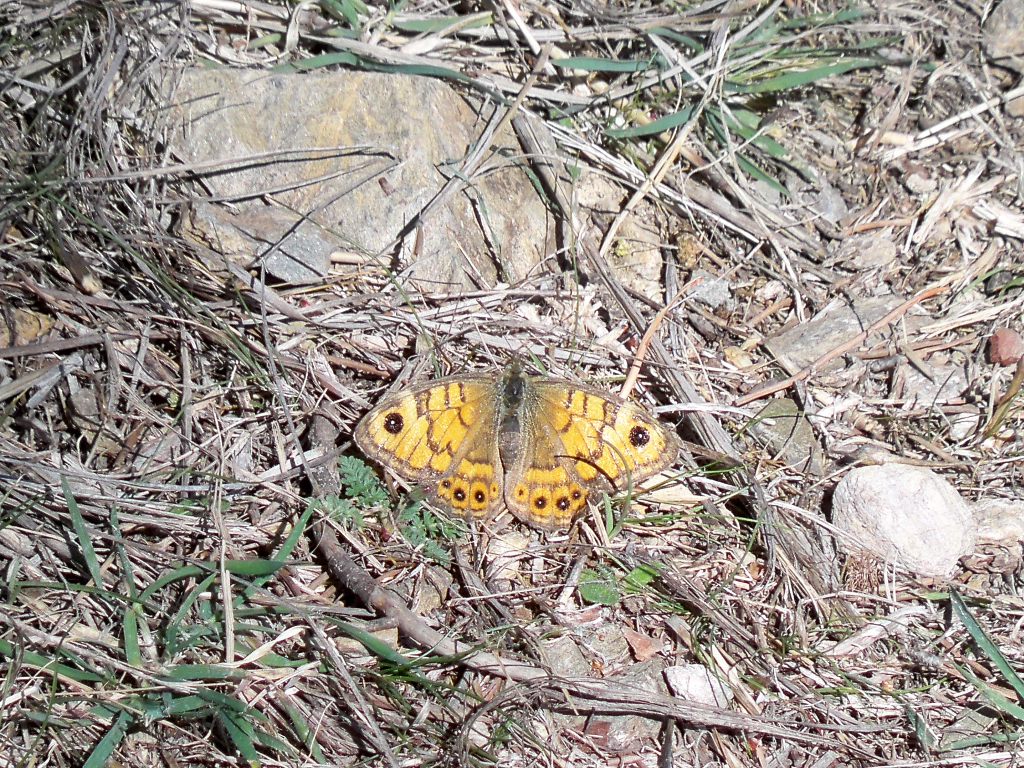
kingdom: Animalia
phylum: Arthropoda
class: Insecta
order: Lepidoptera
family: Nymphalidae
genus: Pararge
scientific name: Pararge Lasiommata megera
